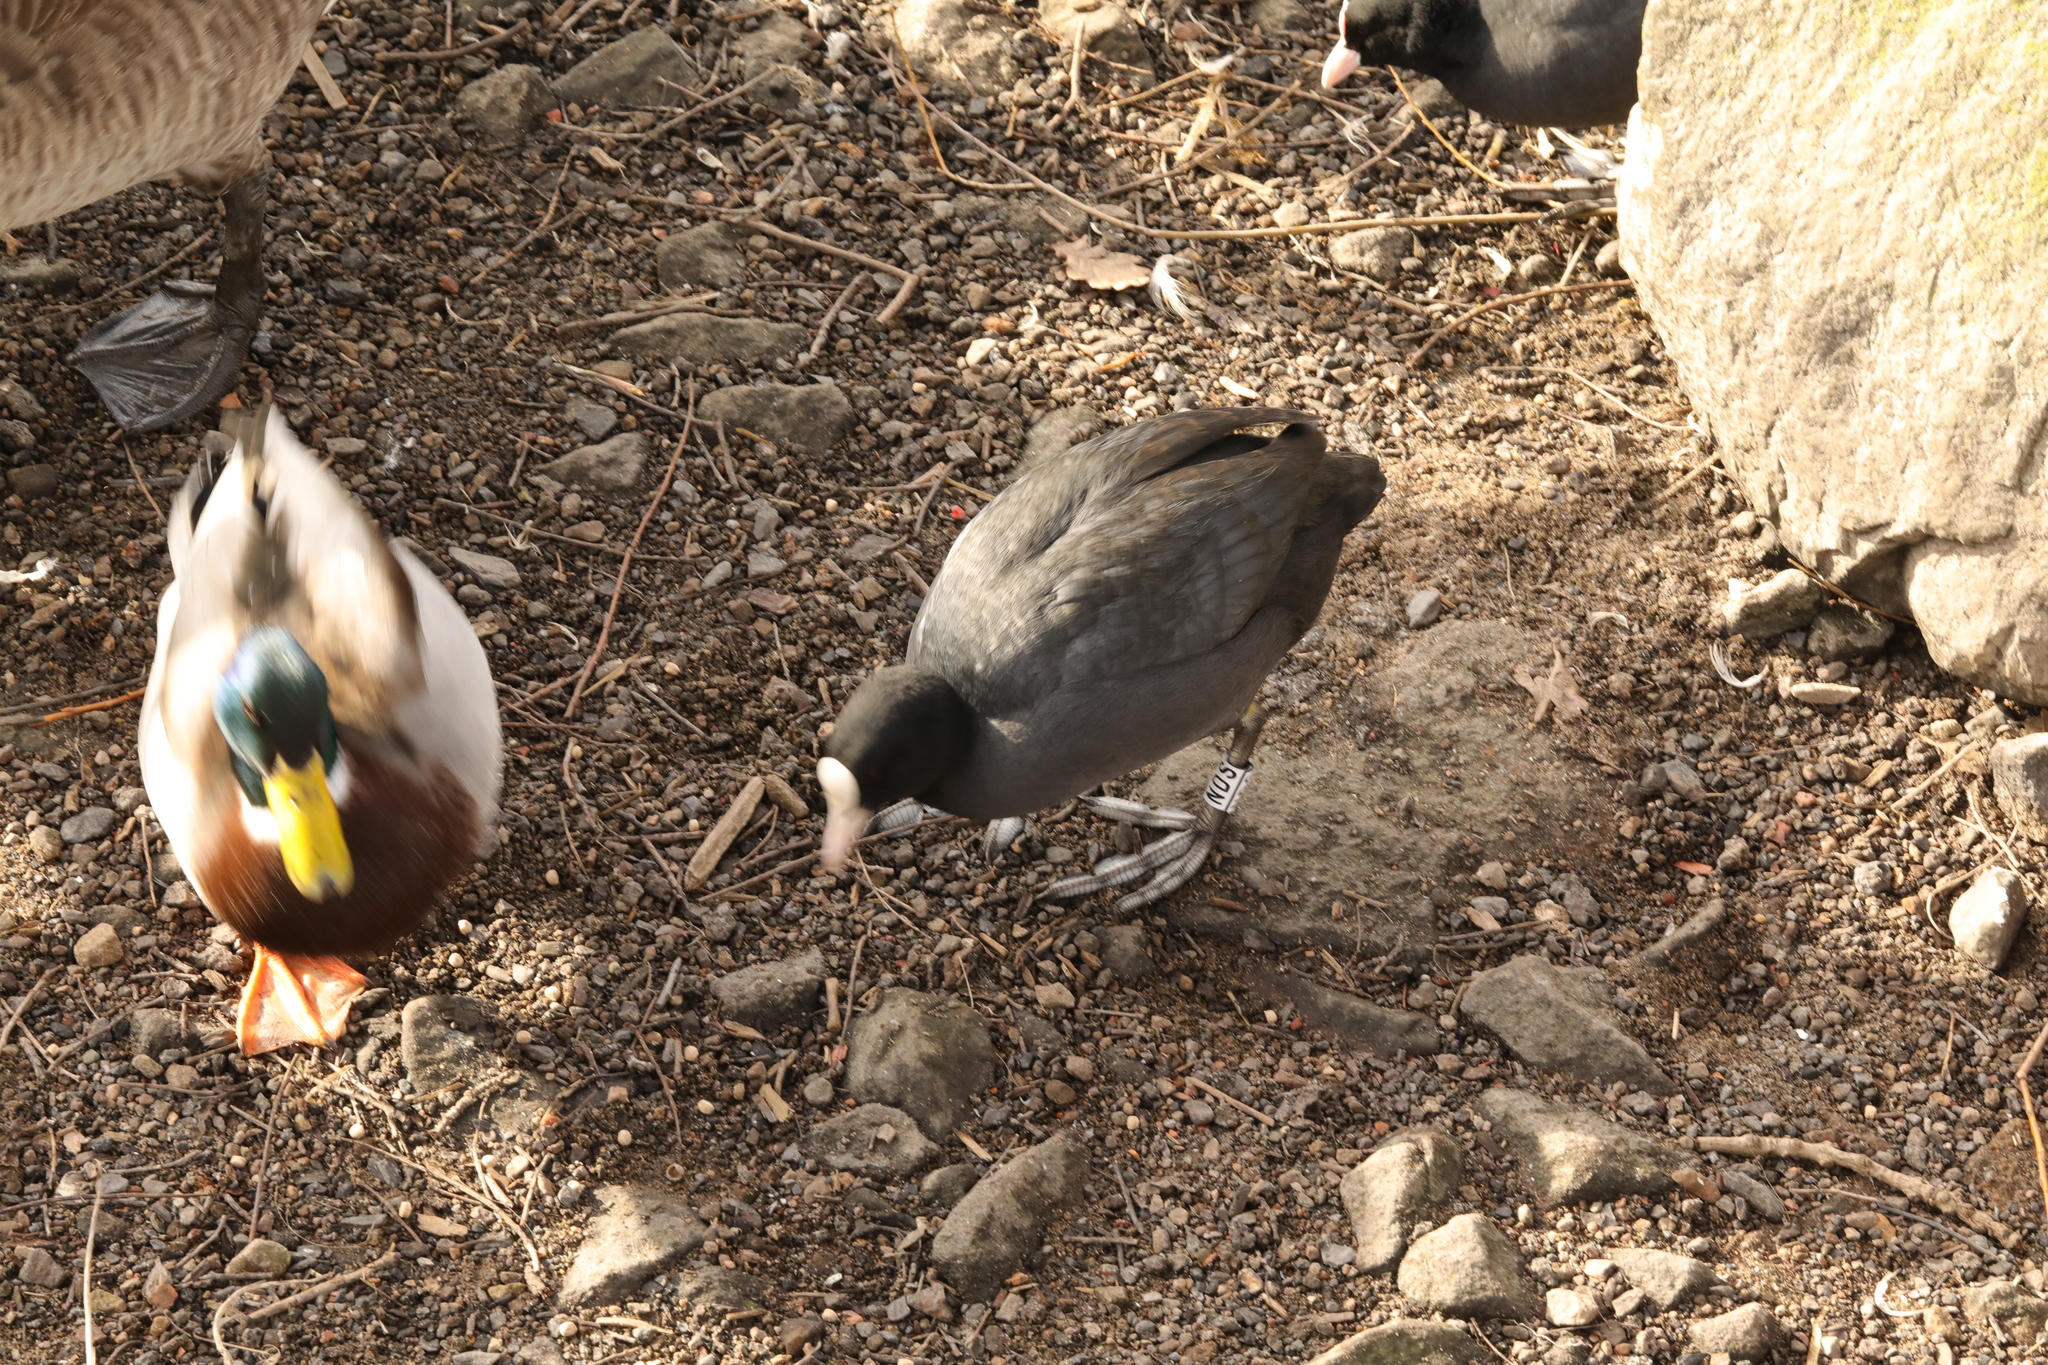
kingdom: Animalia
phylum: Chordata
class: Aves
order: Gruiformes
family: Rallidae
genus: Fulica
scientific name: Fulica atra
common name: Eurasian coot
